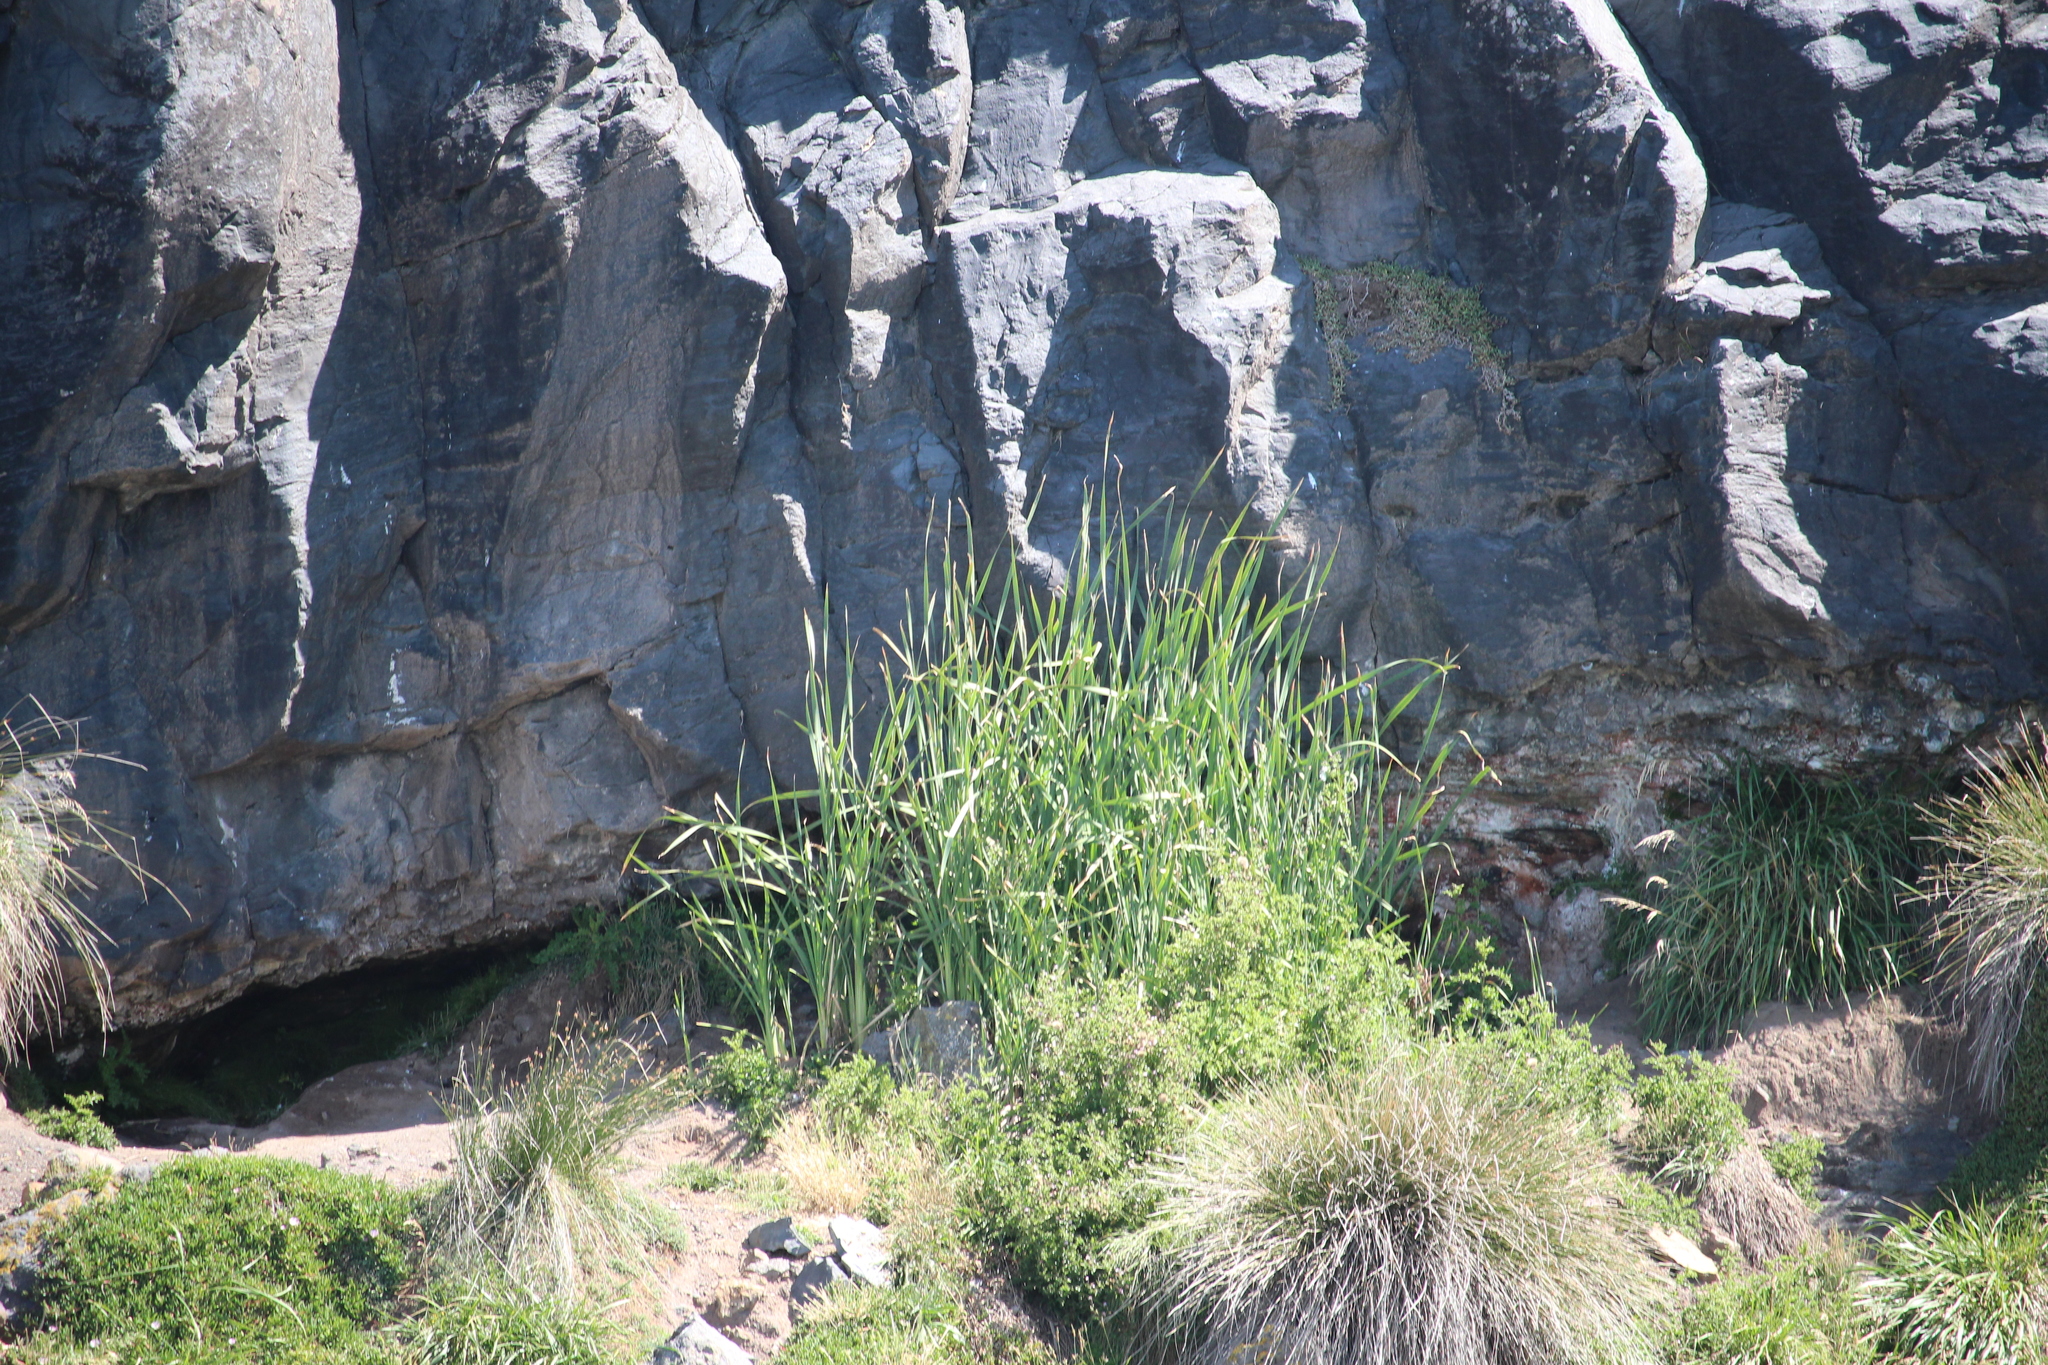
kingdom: Plantae
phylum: Tracheophyta
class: Liliopsida
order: Poales
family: Typhaceae
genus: Typha
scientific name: Typha orientalis
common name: Bullrush
